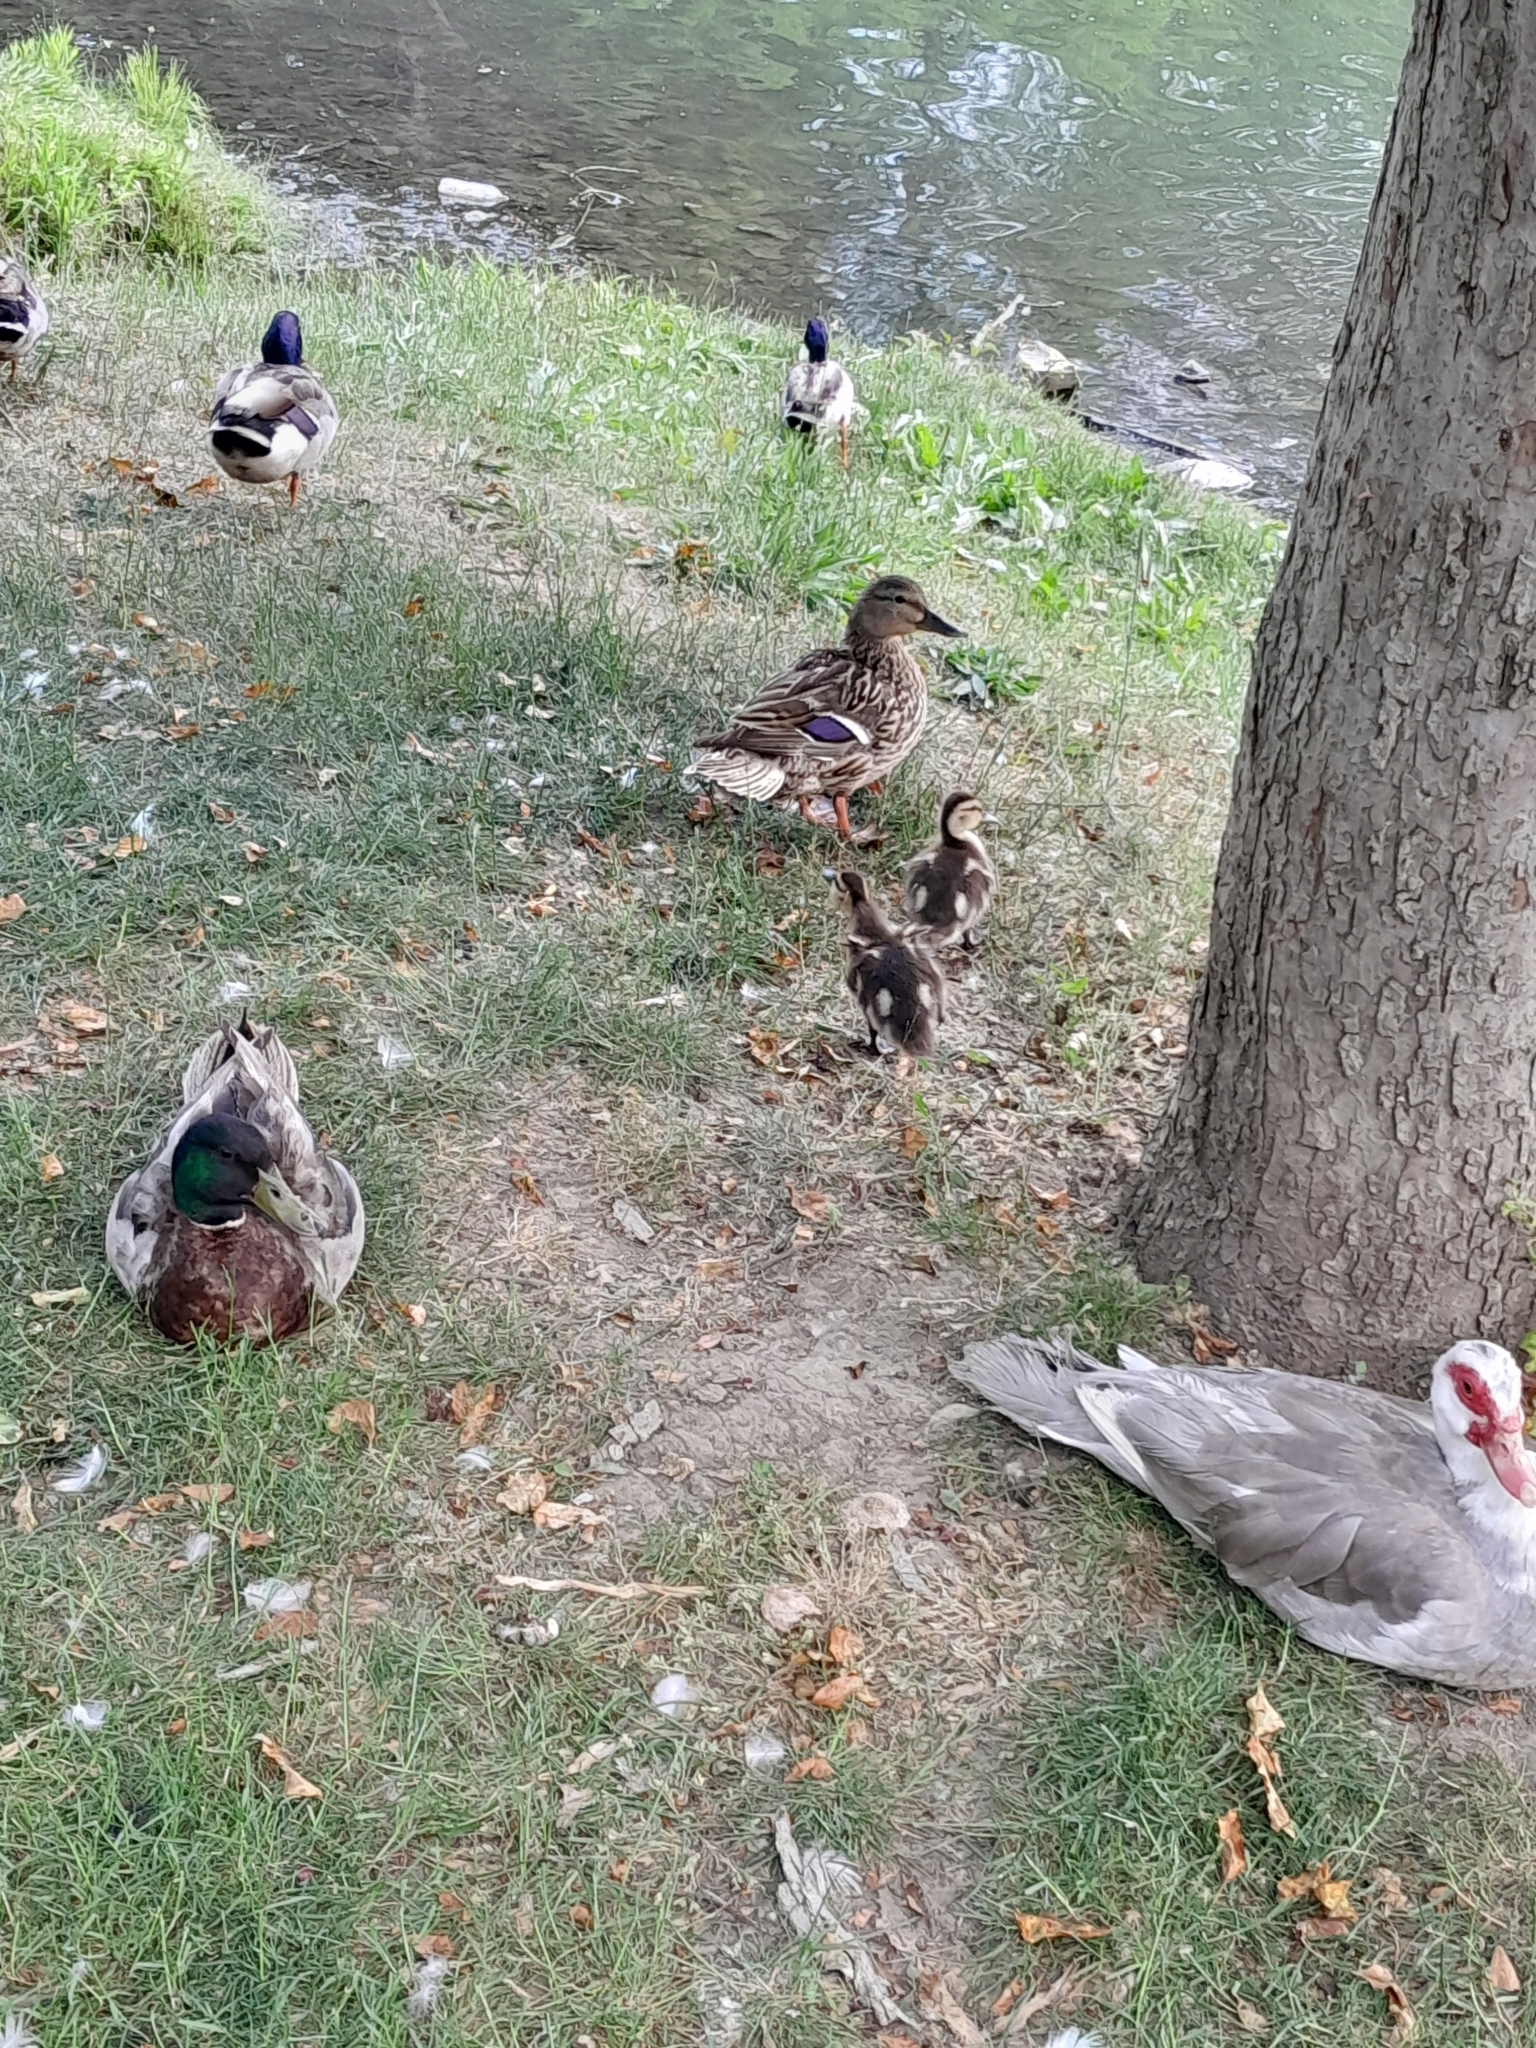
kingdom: Animalia
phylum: Chordata
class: Aves
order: Anseriformes
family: Anatidae
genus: Anas
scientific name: Anas platyrhynchos
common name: Mallard
